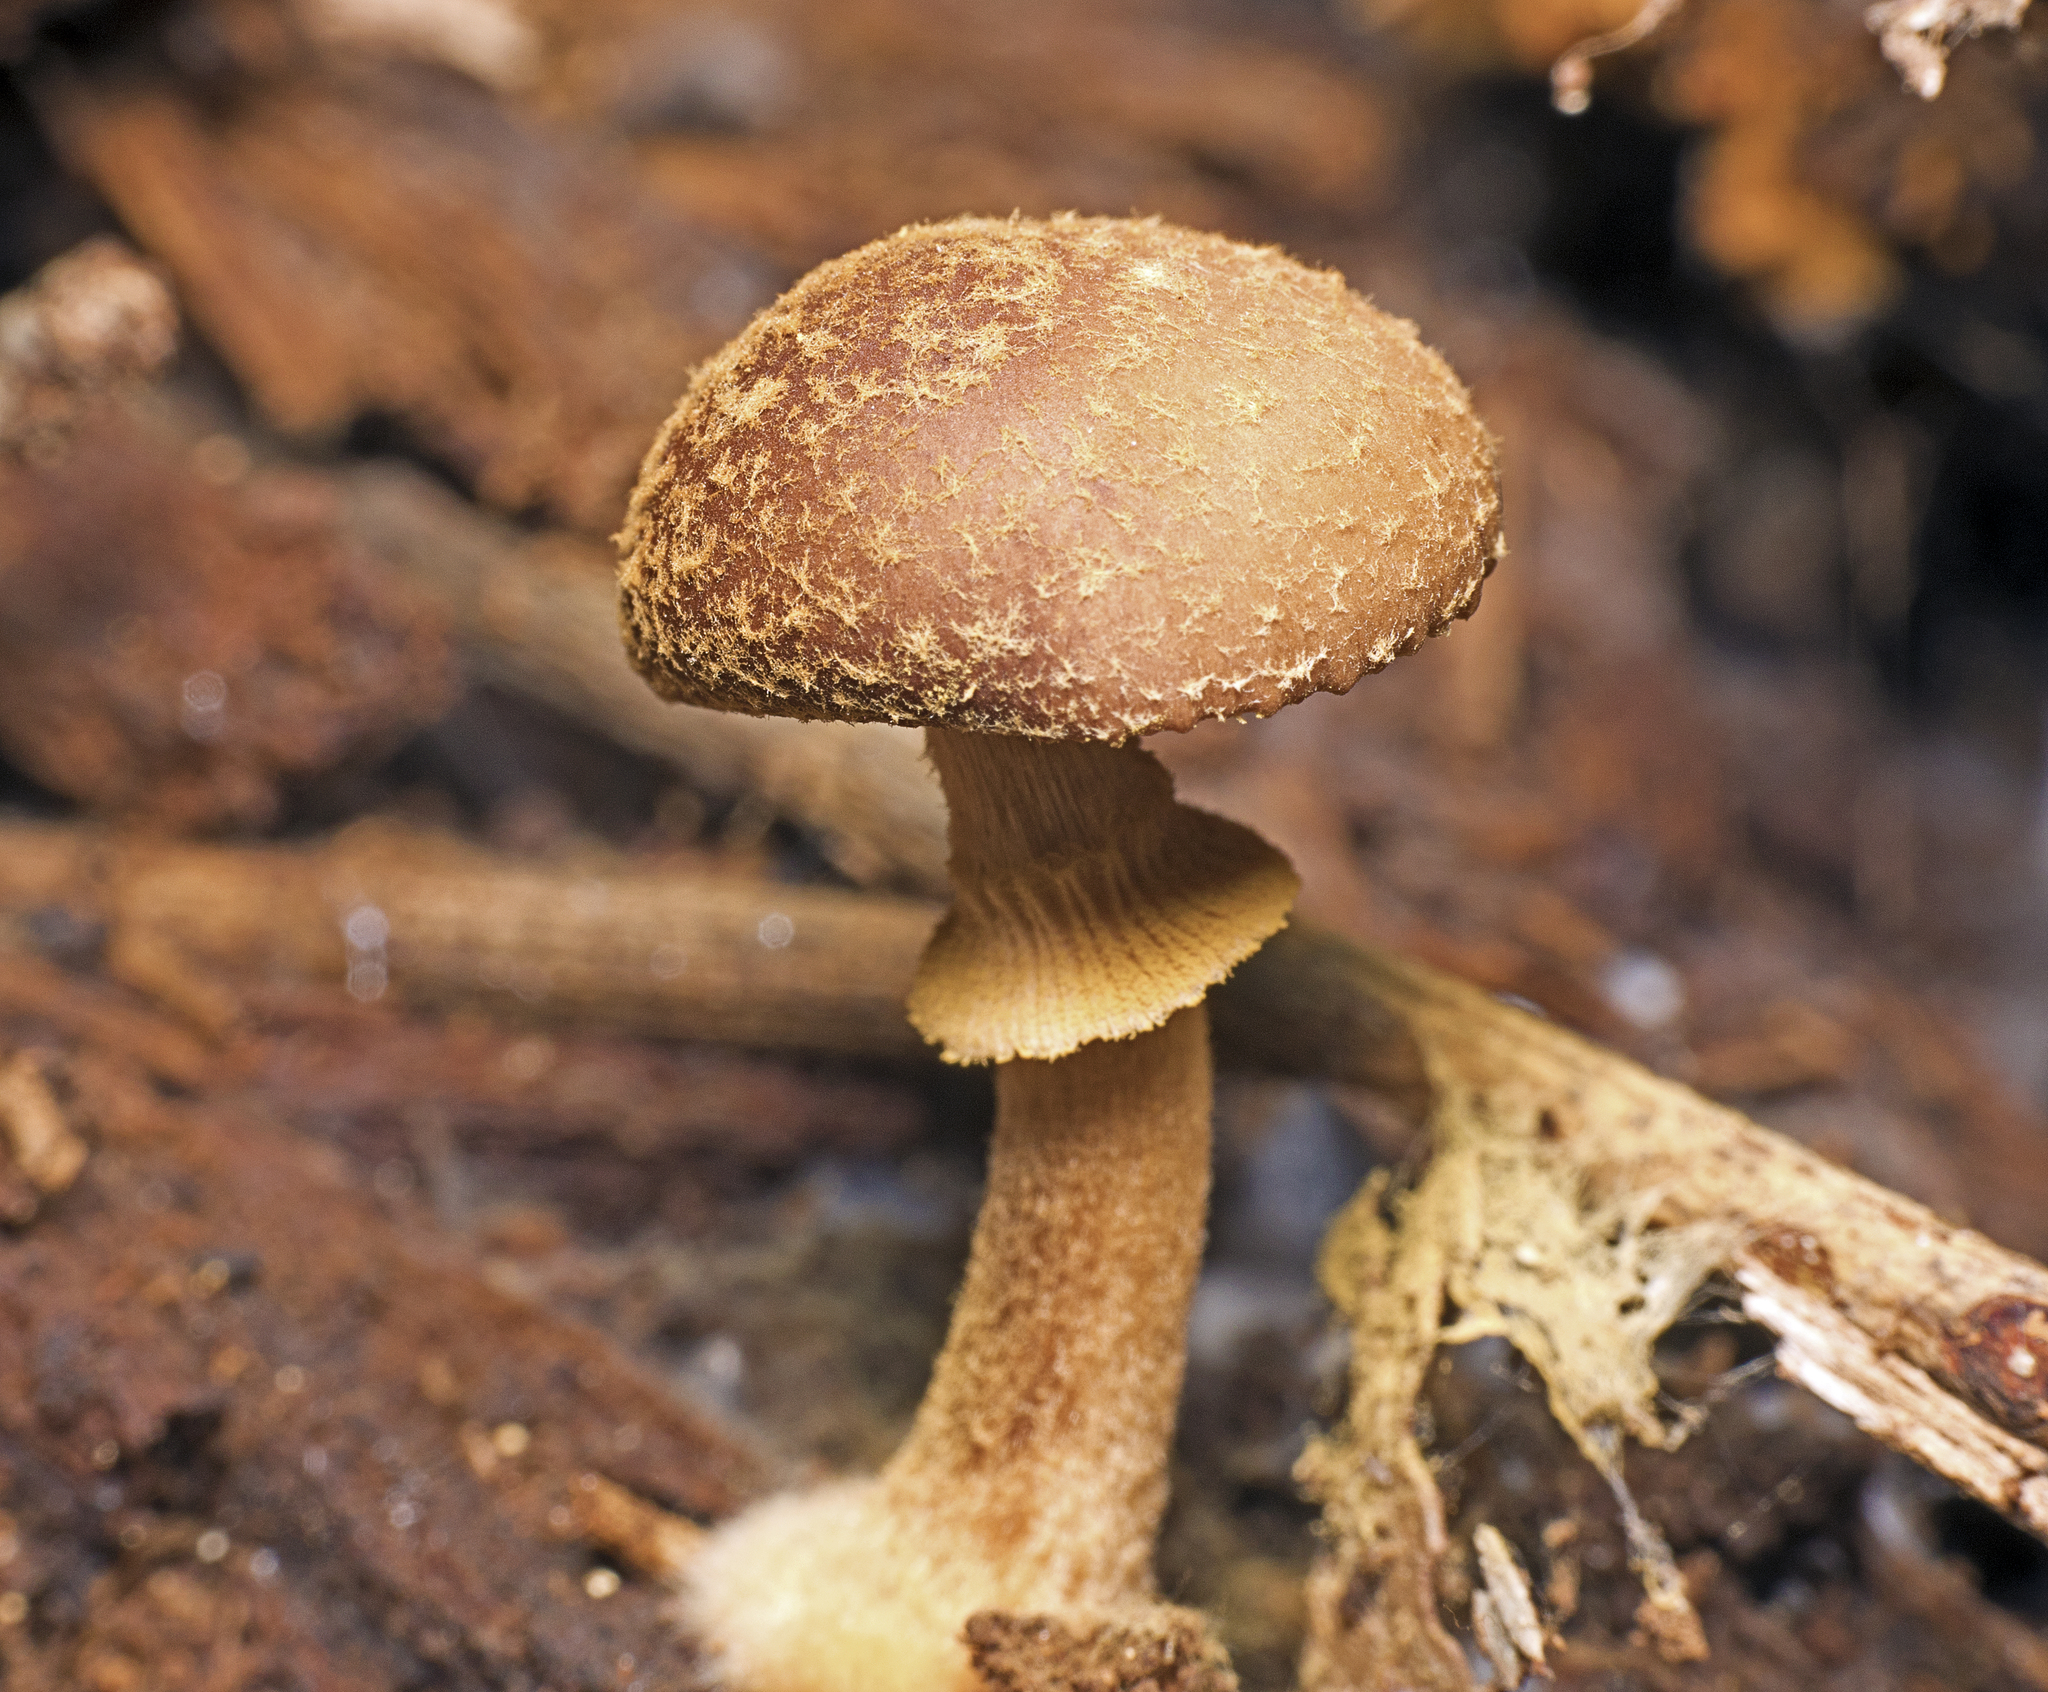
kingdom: Fungi
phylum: Basidiomycota
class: Agaricomycetes
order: Agaricales
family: Bolbitiaceae
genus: Descolea
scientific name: Descolea recedens
